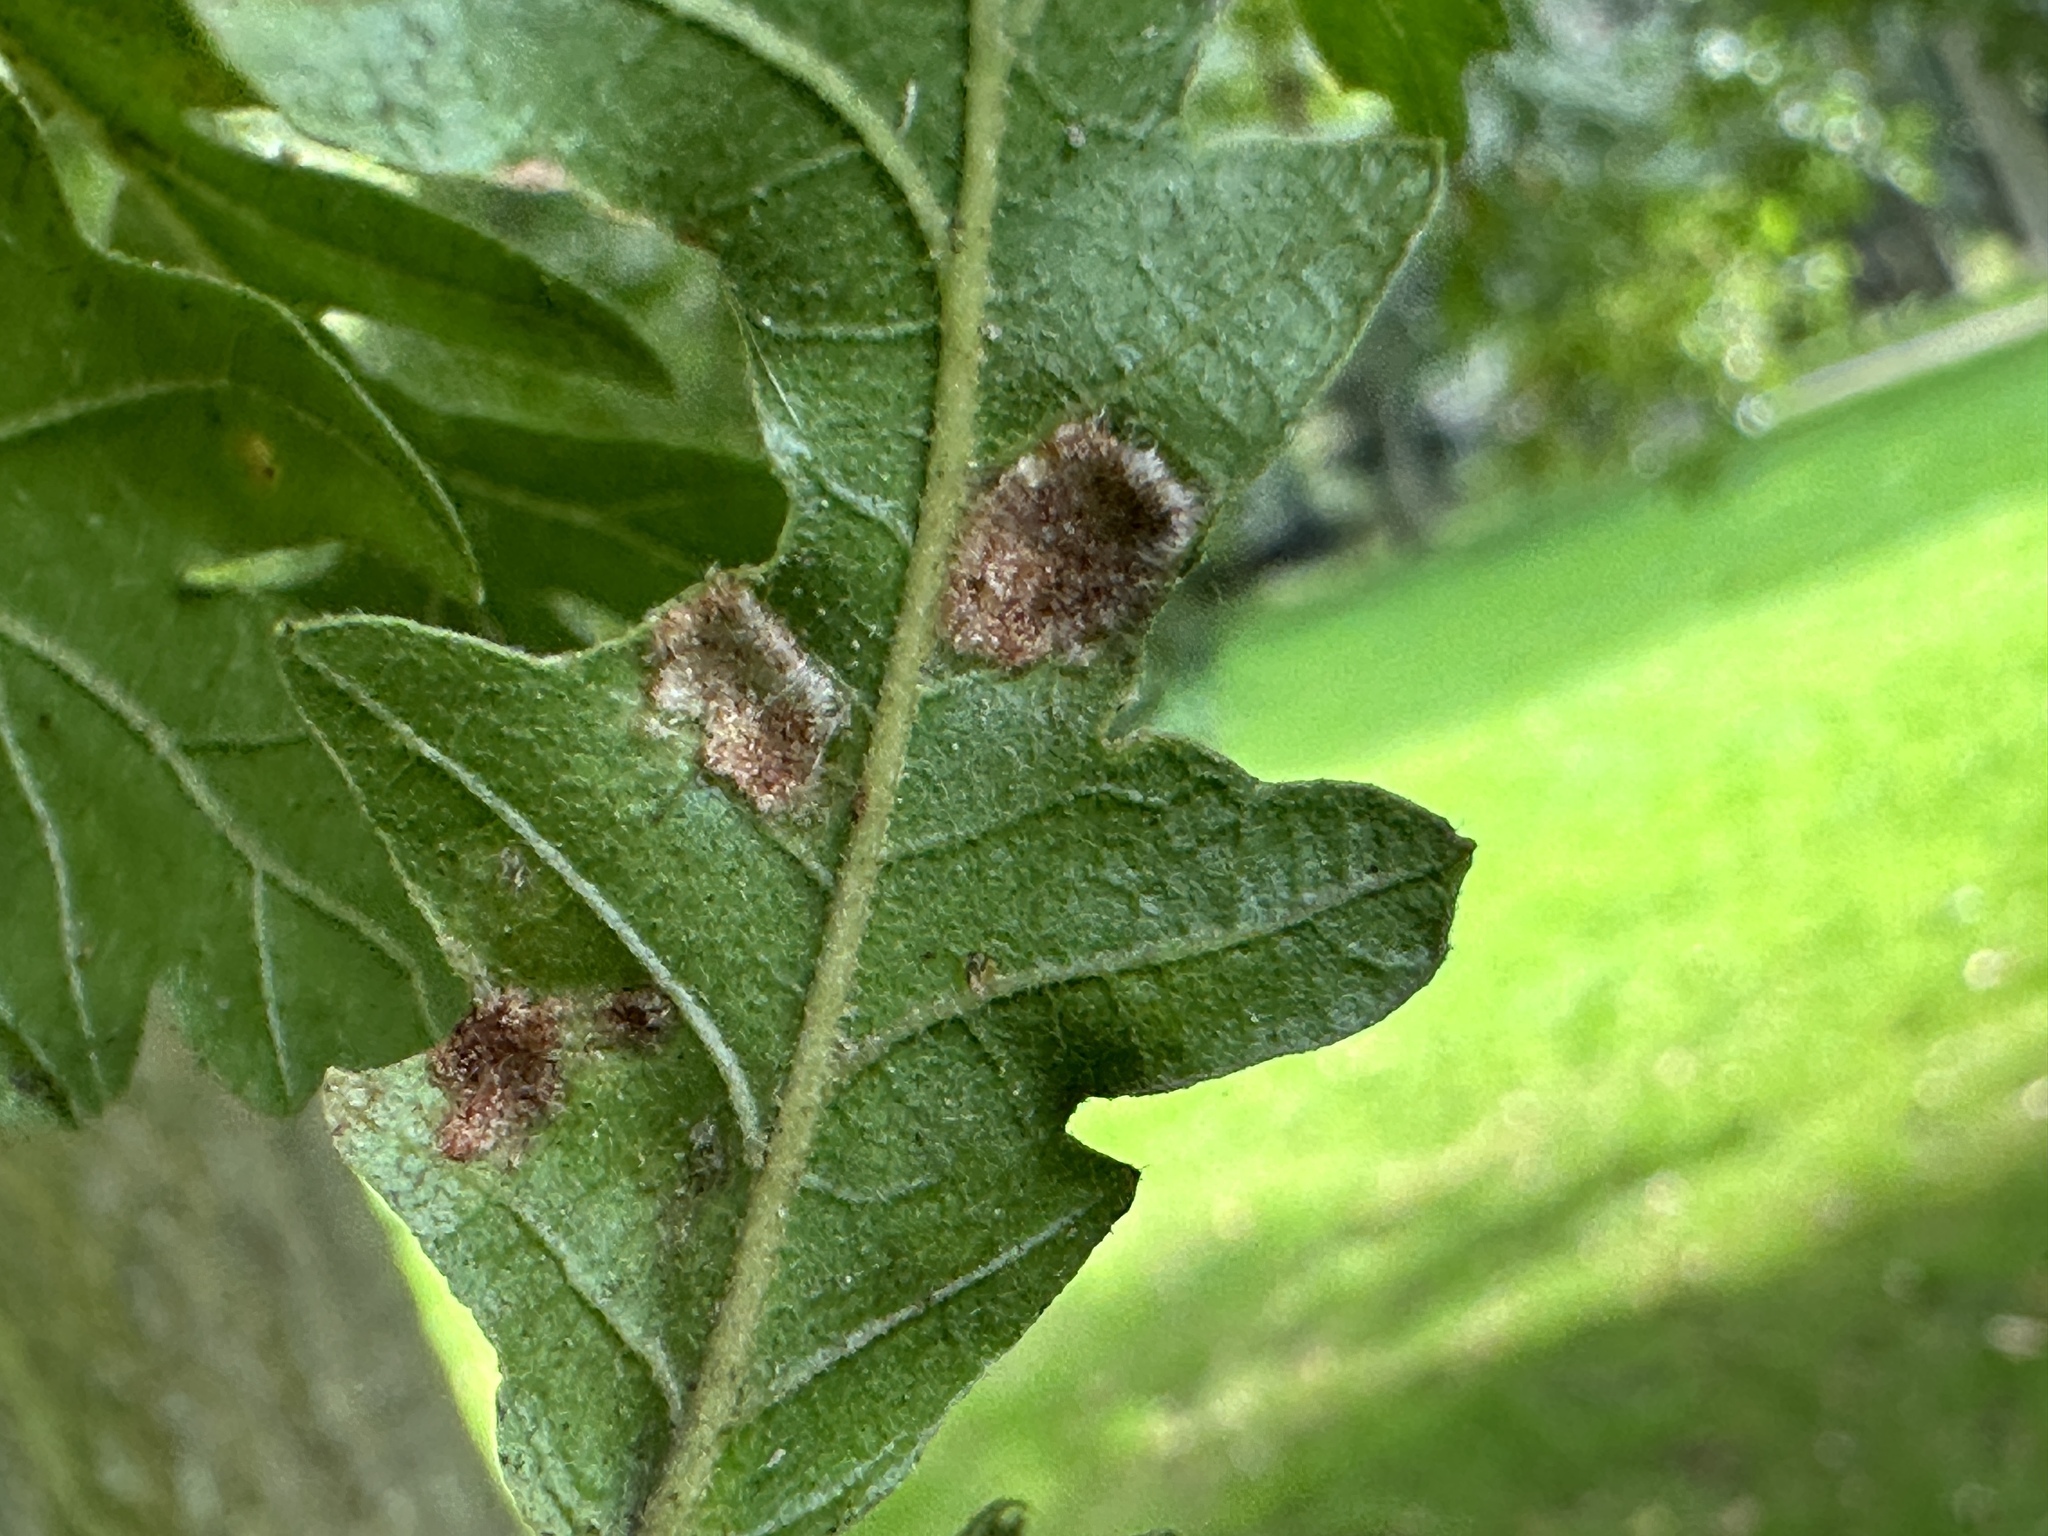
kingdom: Animalia
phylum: Arthropoda
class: Arachnida
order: Trombidiformes
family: Eriophyidae
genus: Aceria
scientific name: Aceria cerrea
